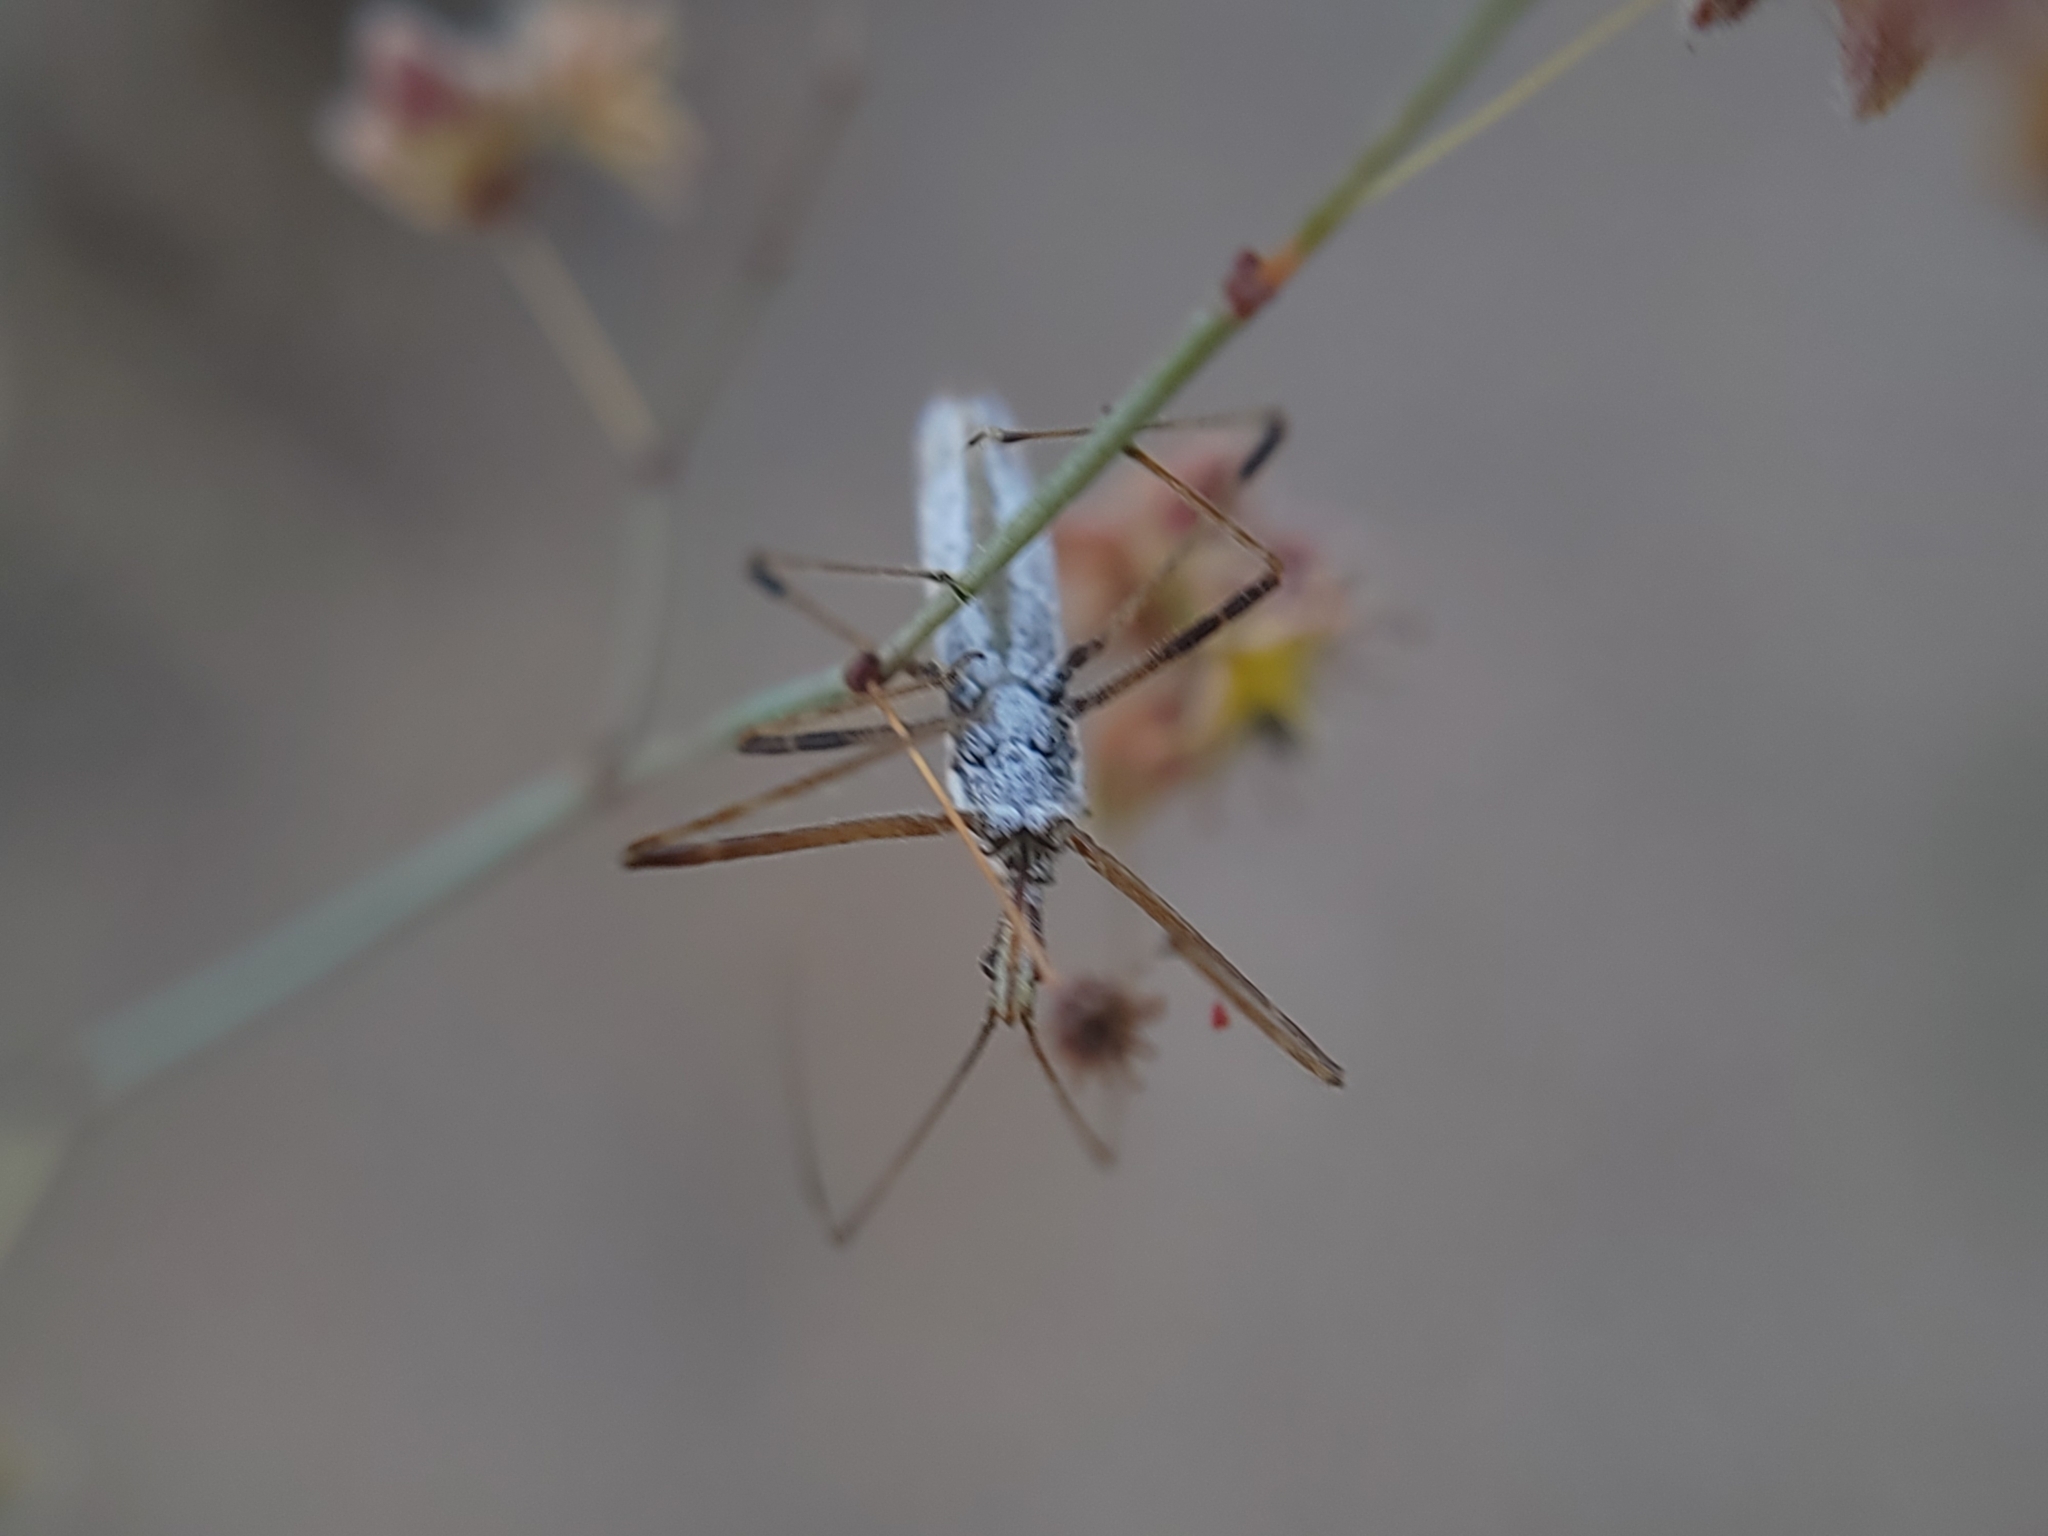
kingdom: Animalia
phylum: Arthropoda
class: Insecta
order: Hemiptera
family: Reduviidae
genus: Zelus
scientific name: Zelus tetracanthus
